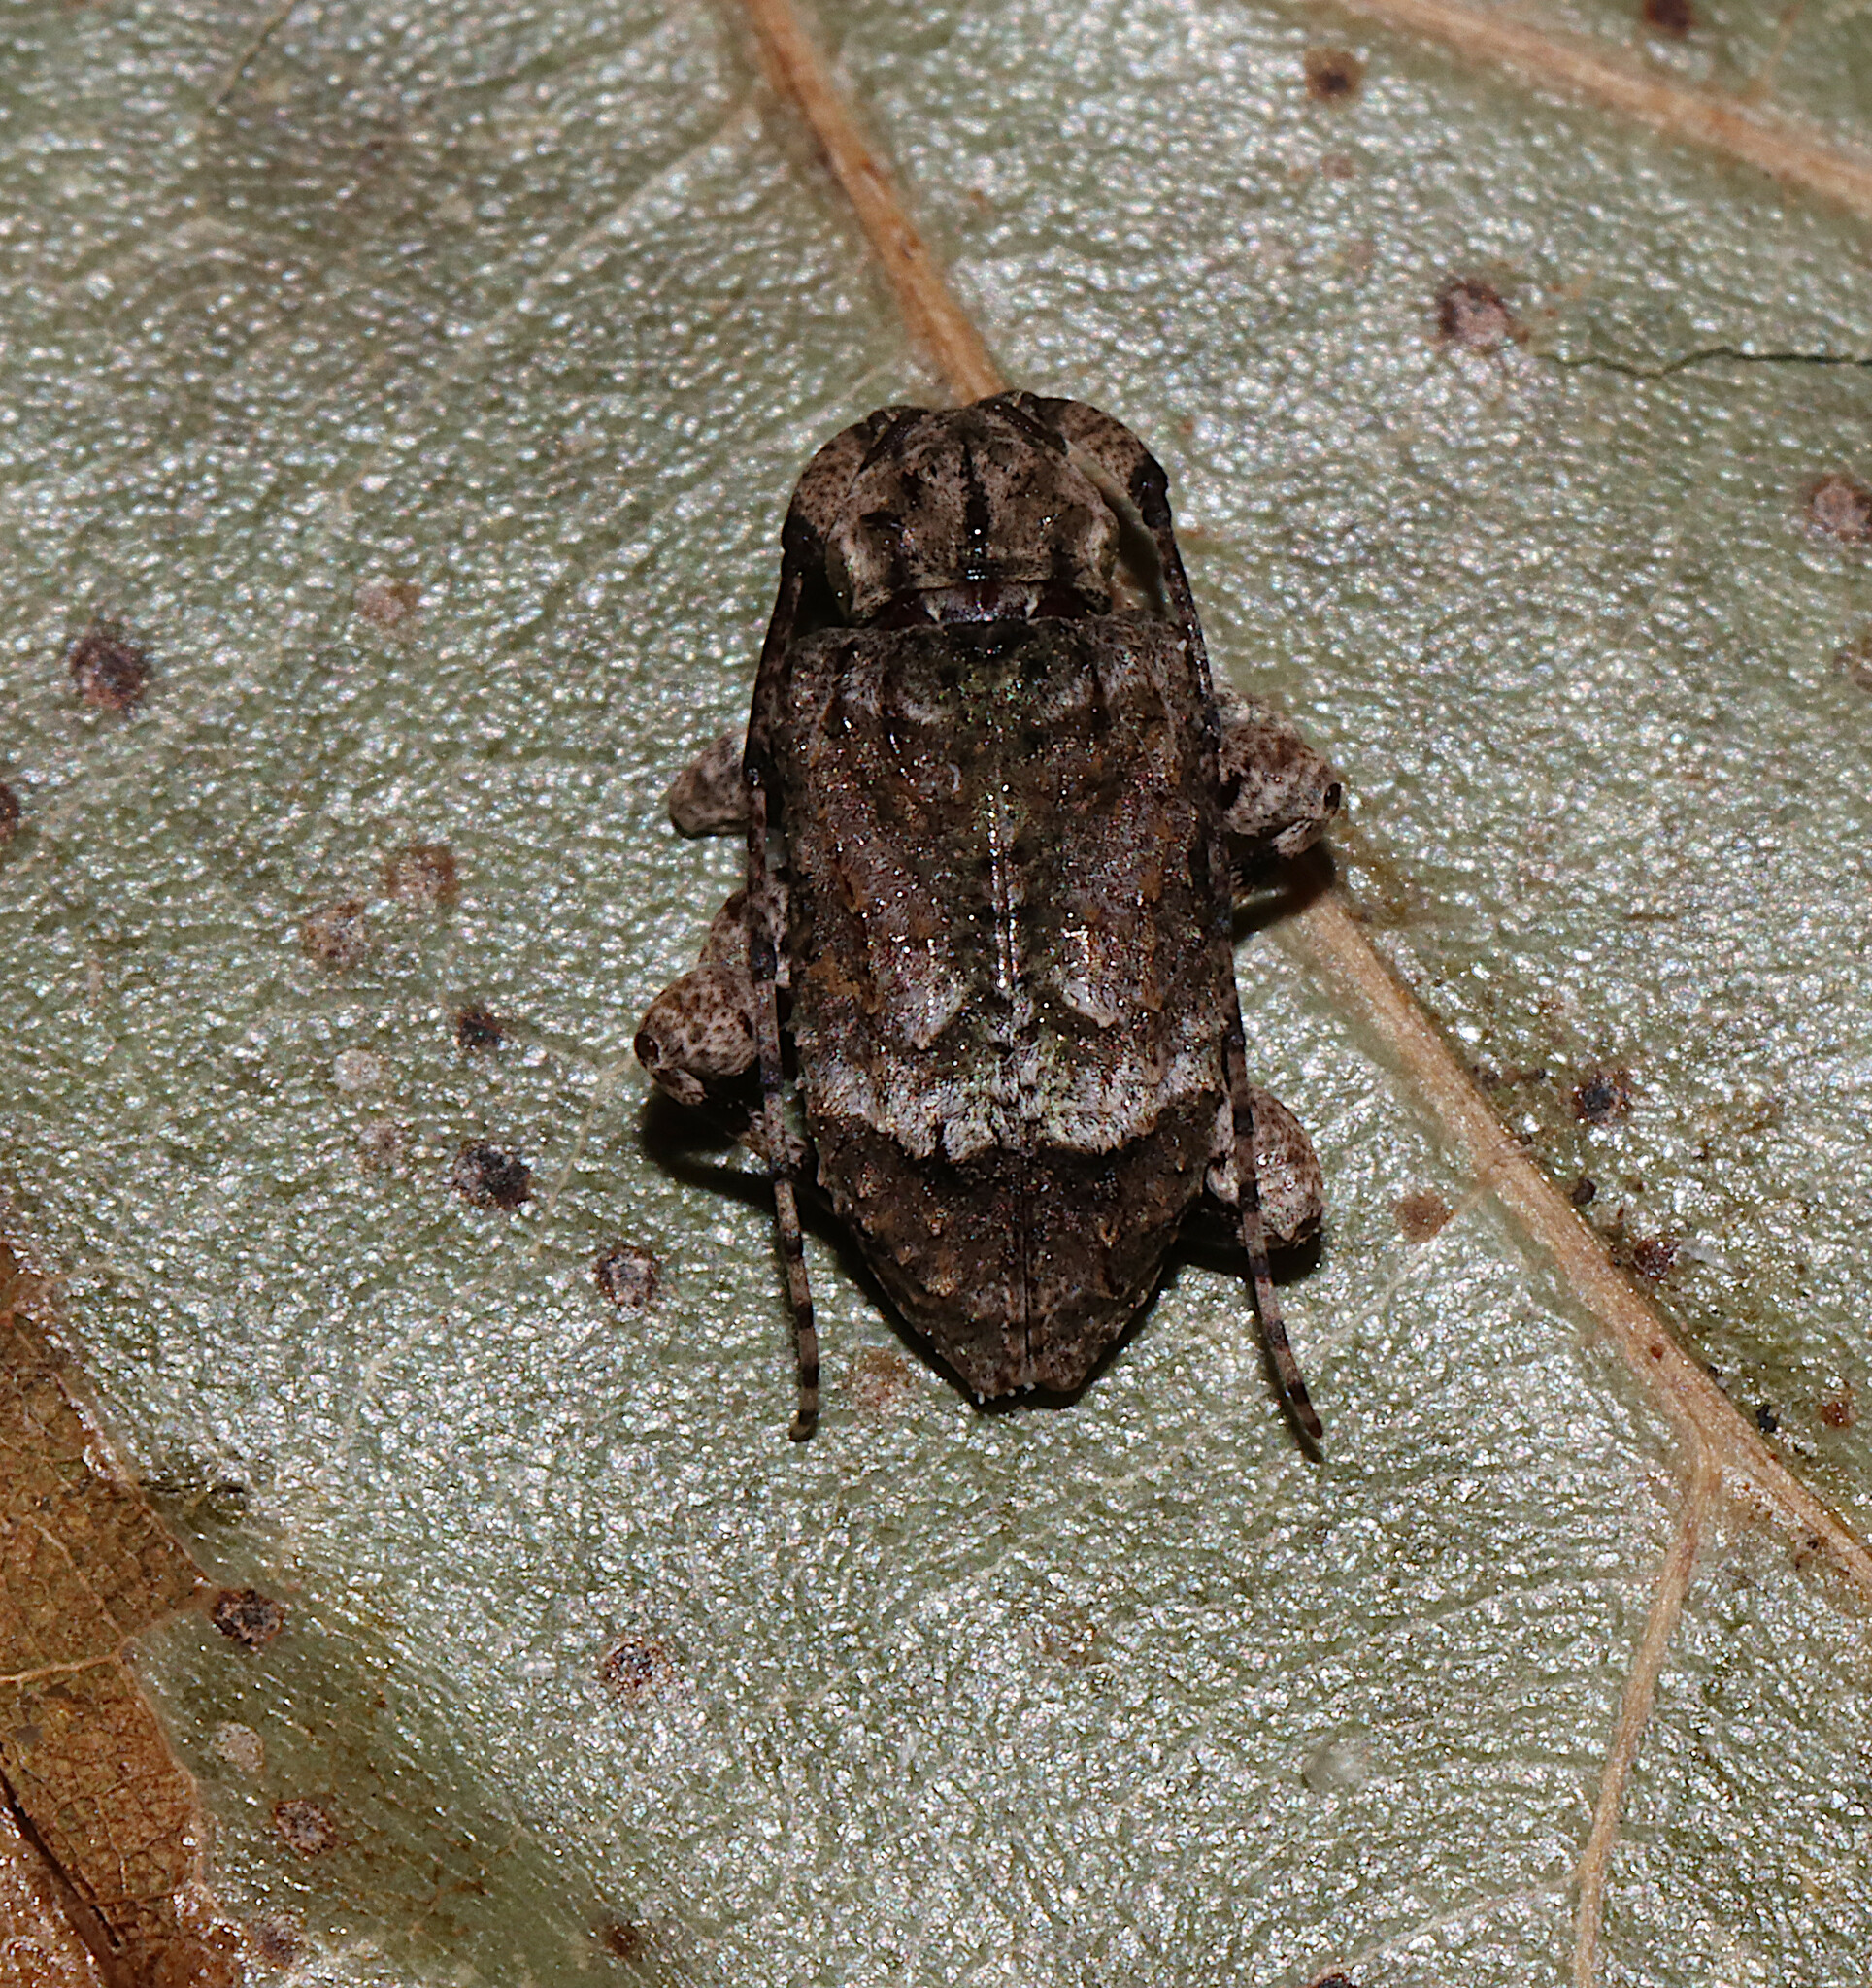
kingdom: Animalia
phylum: Arthropoda
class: Insecta
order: Coleoptera
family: Cerambycidae
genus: Leptostylus
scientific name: Leptostylus transversus
